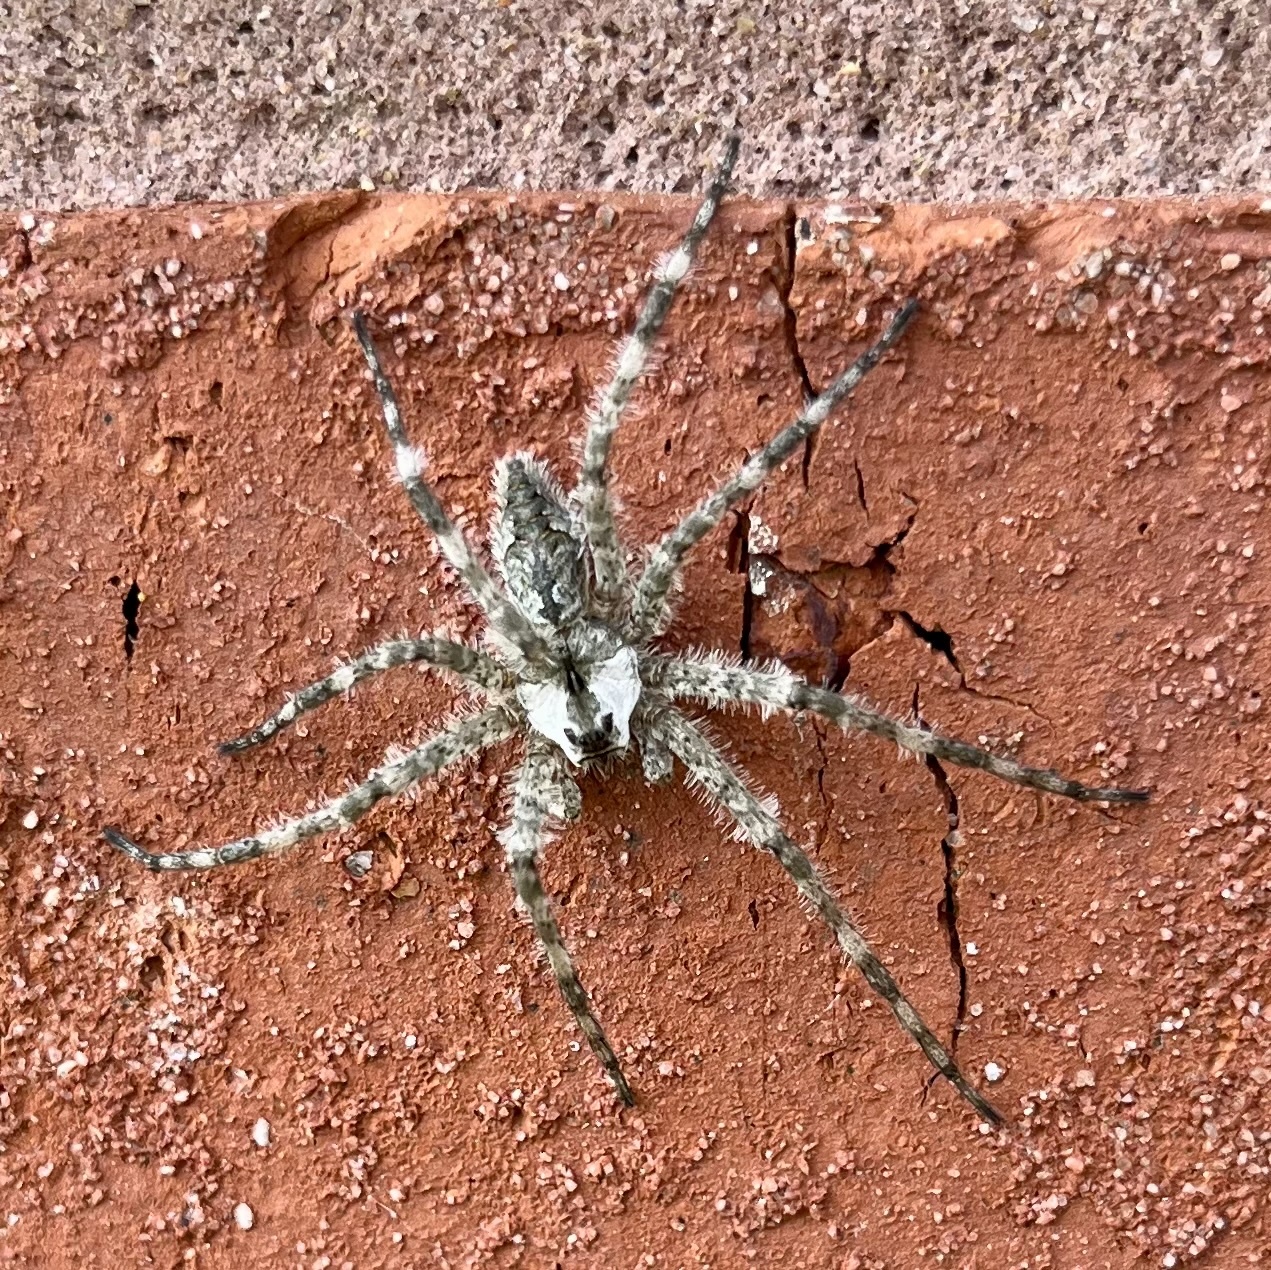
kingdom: Animalia
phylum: Arthropoda
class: Arachnida
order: Araneae
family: Pisauridae
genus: Dolomedes
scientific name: Dolomedes albineus
